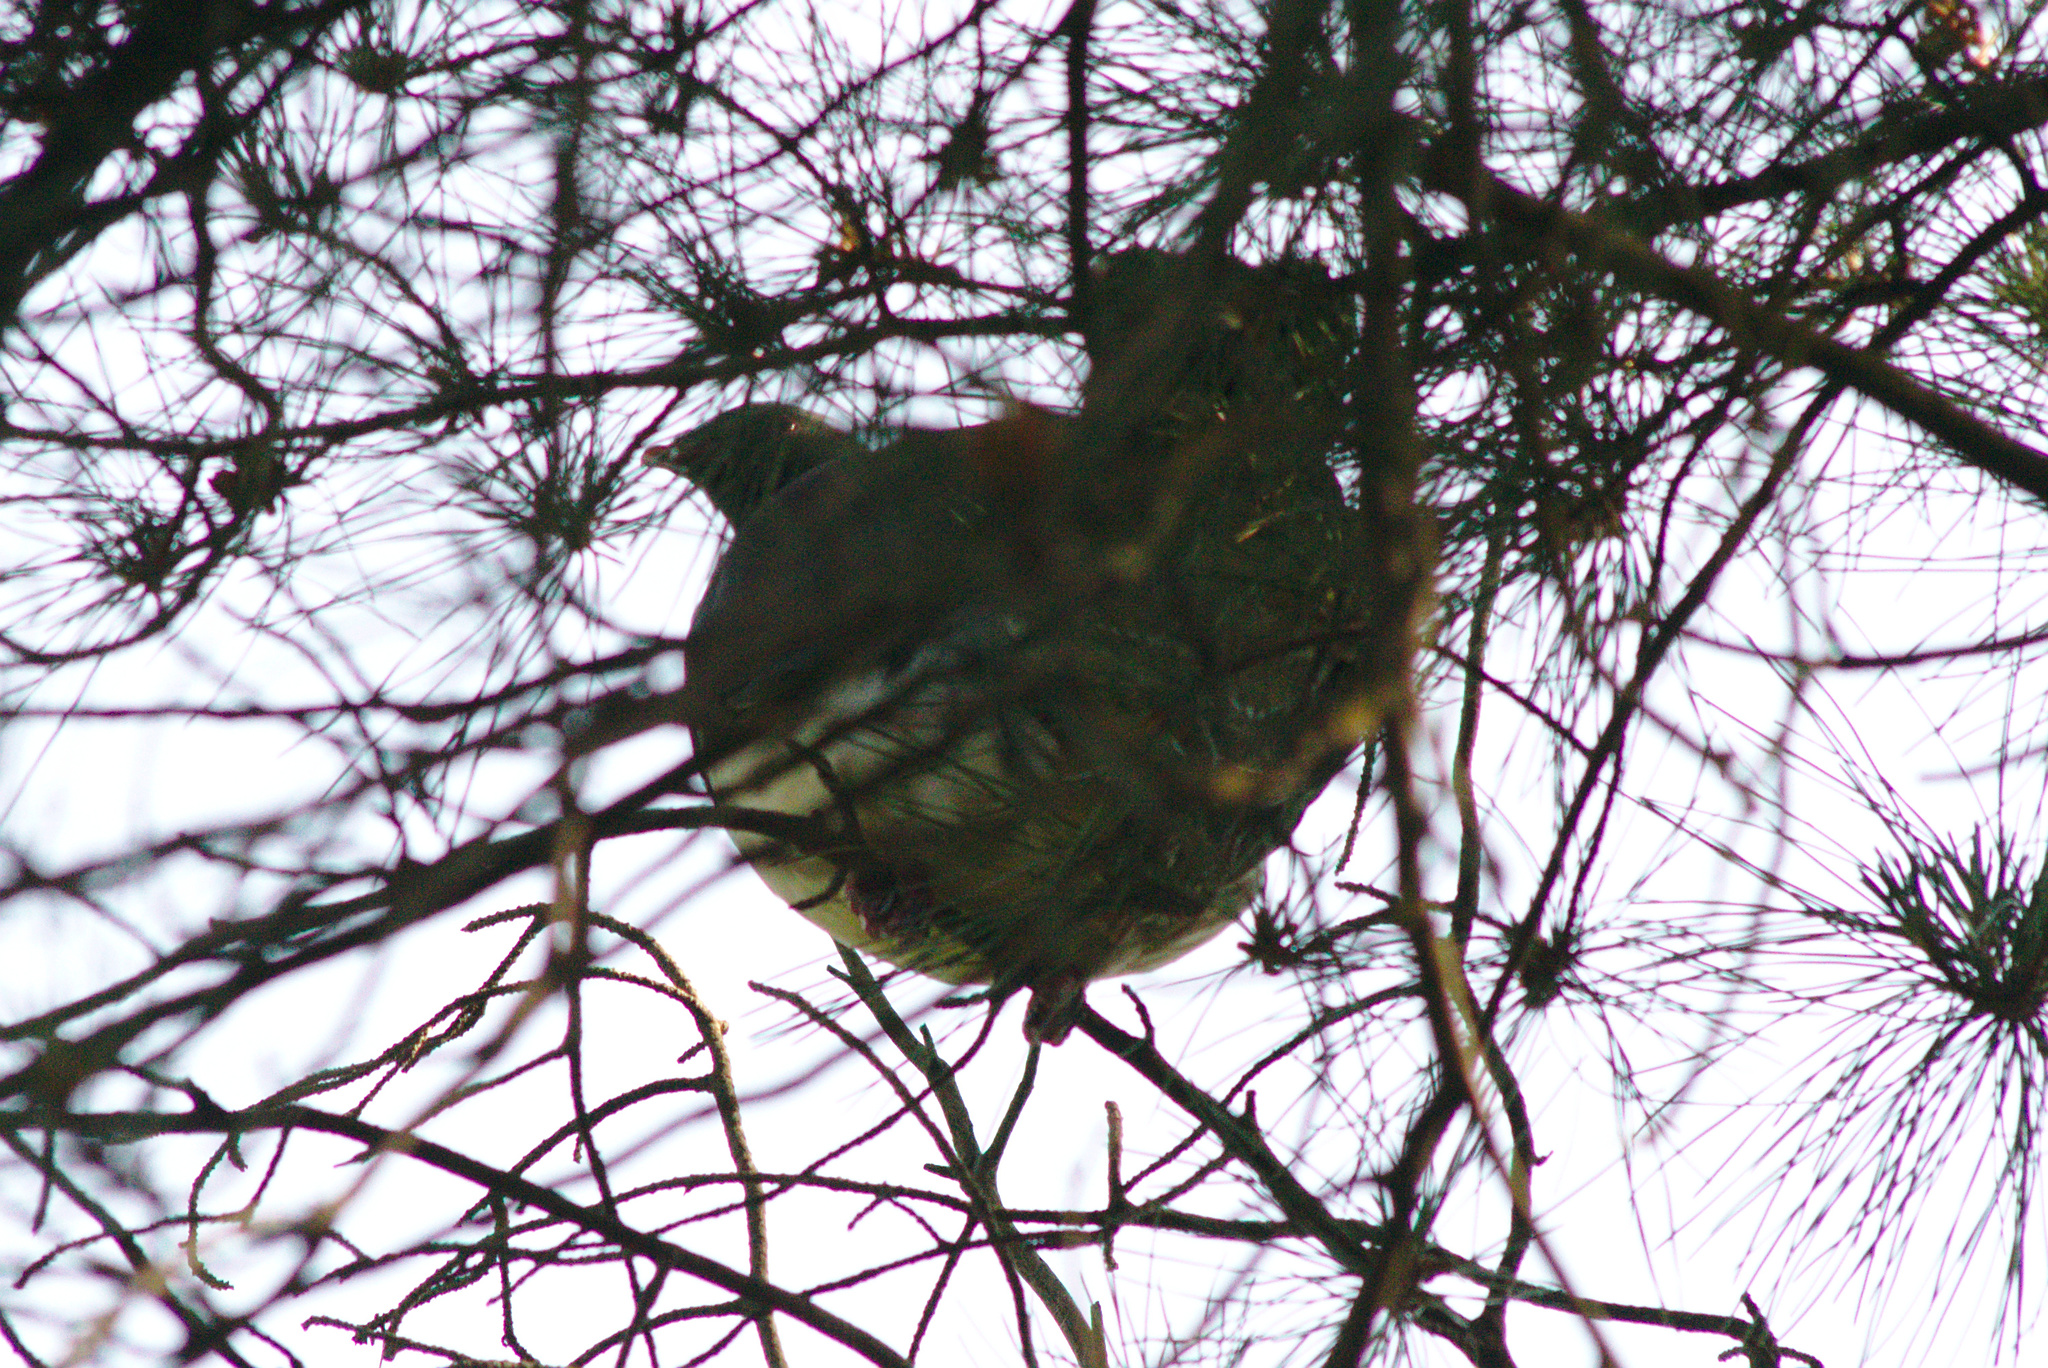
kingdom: Animalia
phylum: Chordata
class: Aves
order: Columbiformes
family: Columbidae
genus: Hemiphaga
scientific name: Hemiphaga novaeseelandiae
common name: New zealand pigeon
